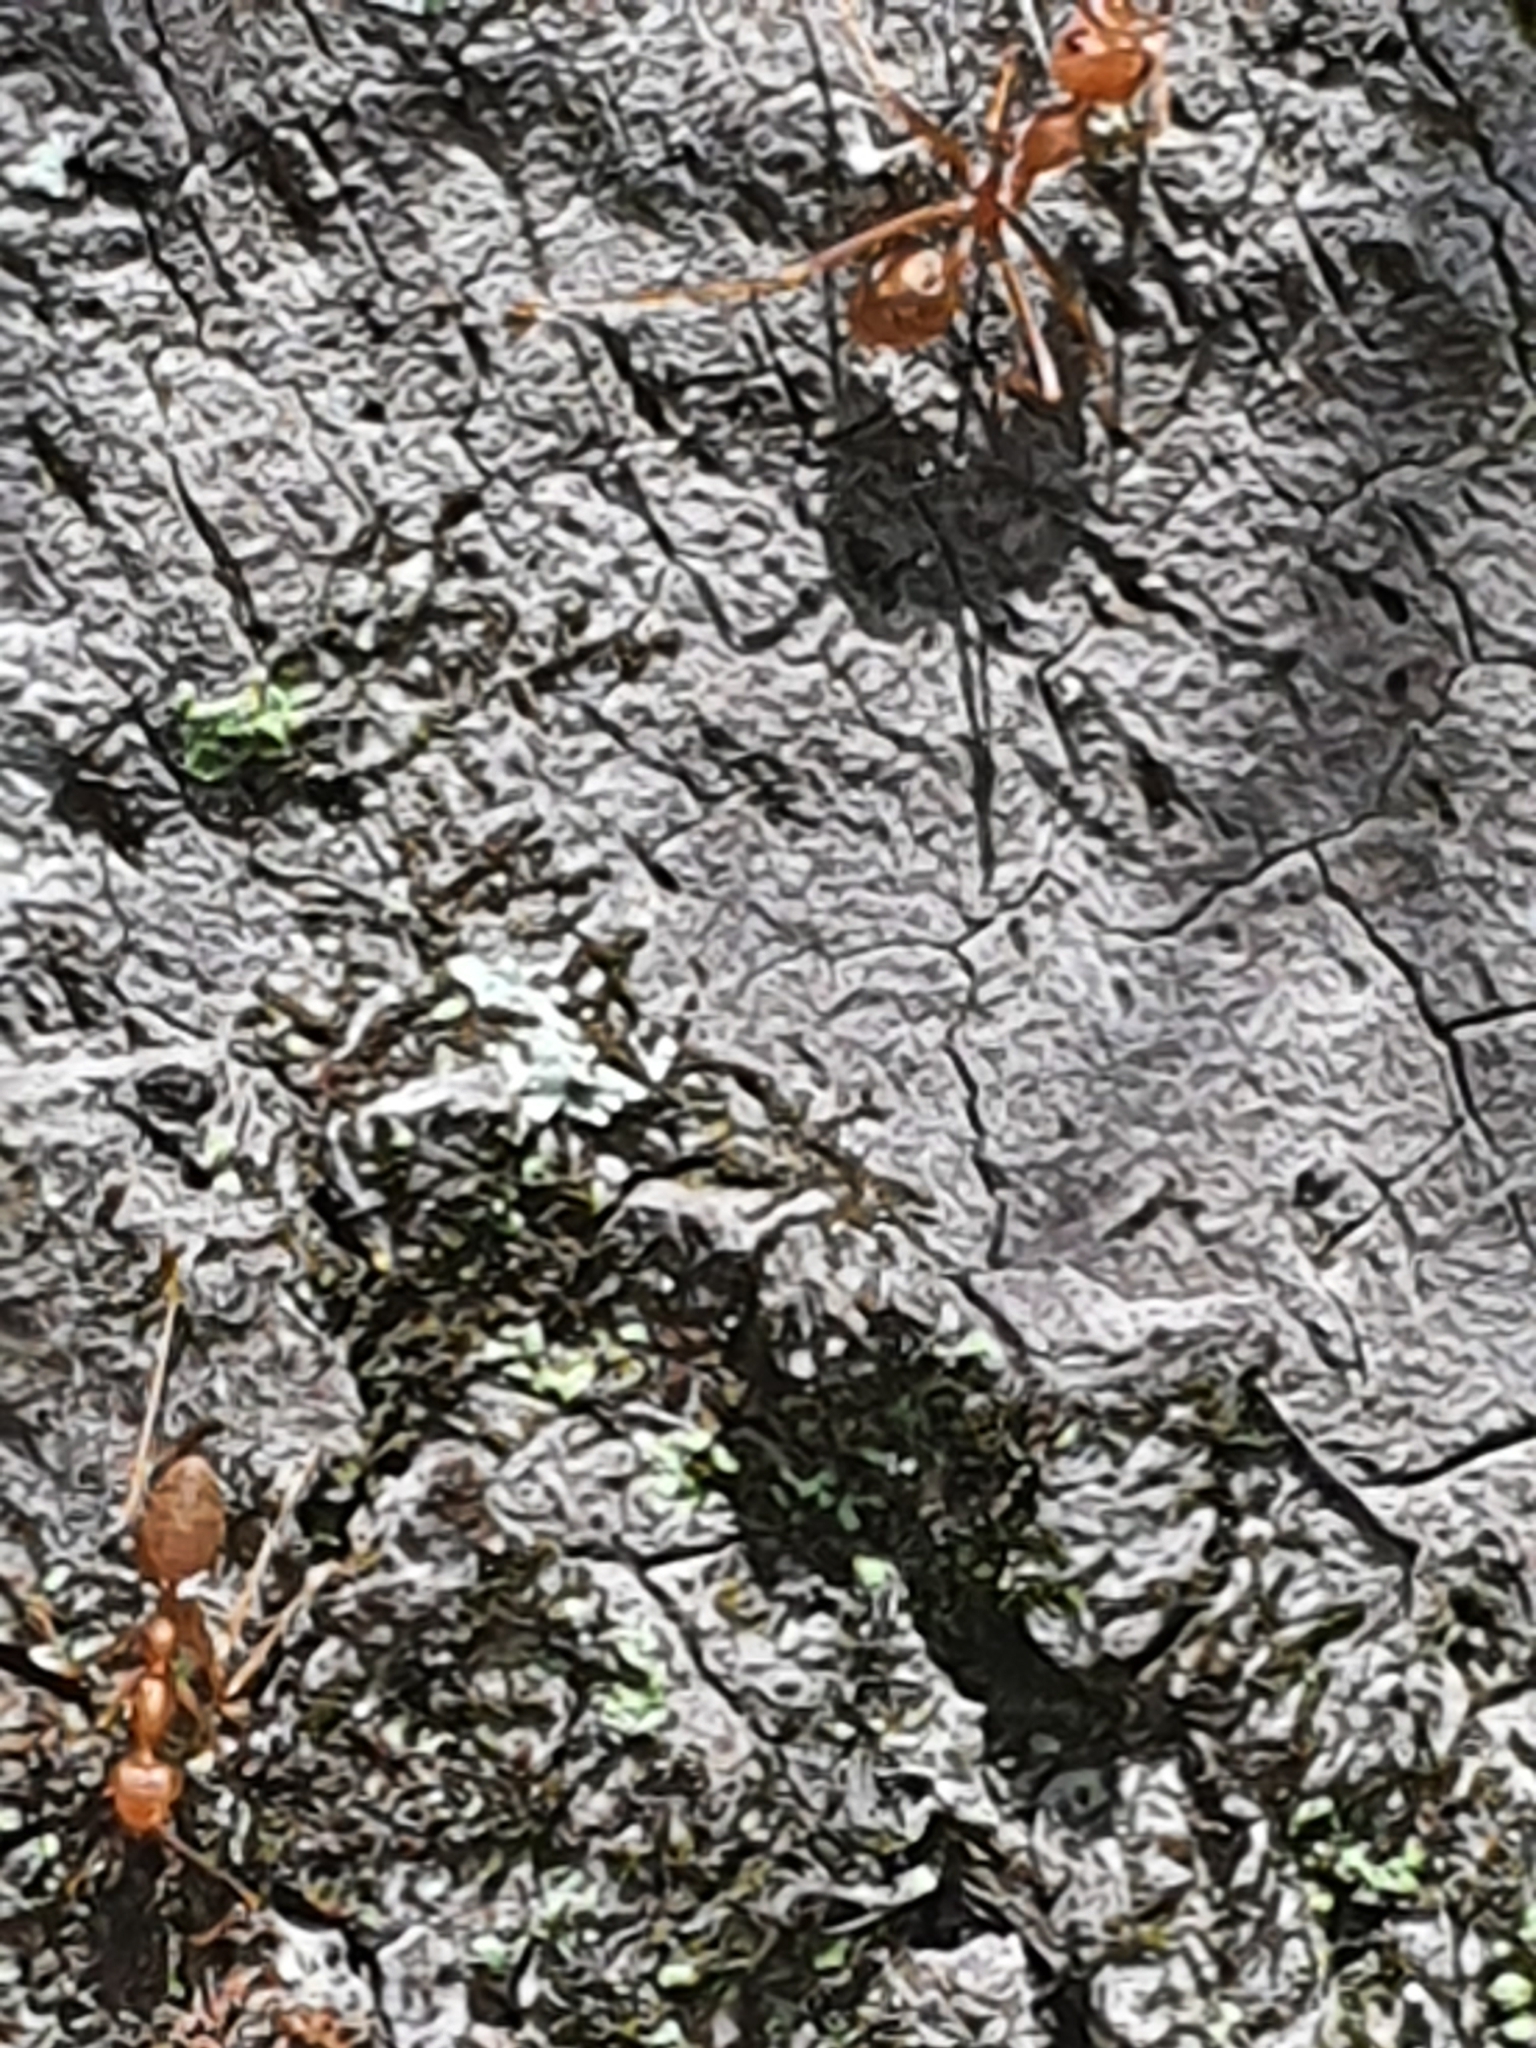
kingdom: Animalia
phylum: Arthropoda
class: Insecta
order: Hymenoptera
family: Formicidae
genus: Oecophylla
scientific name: Oecophylla smaragdina
